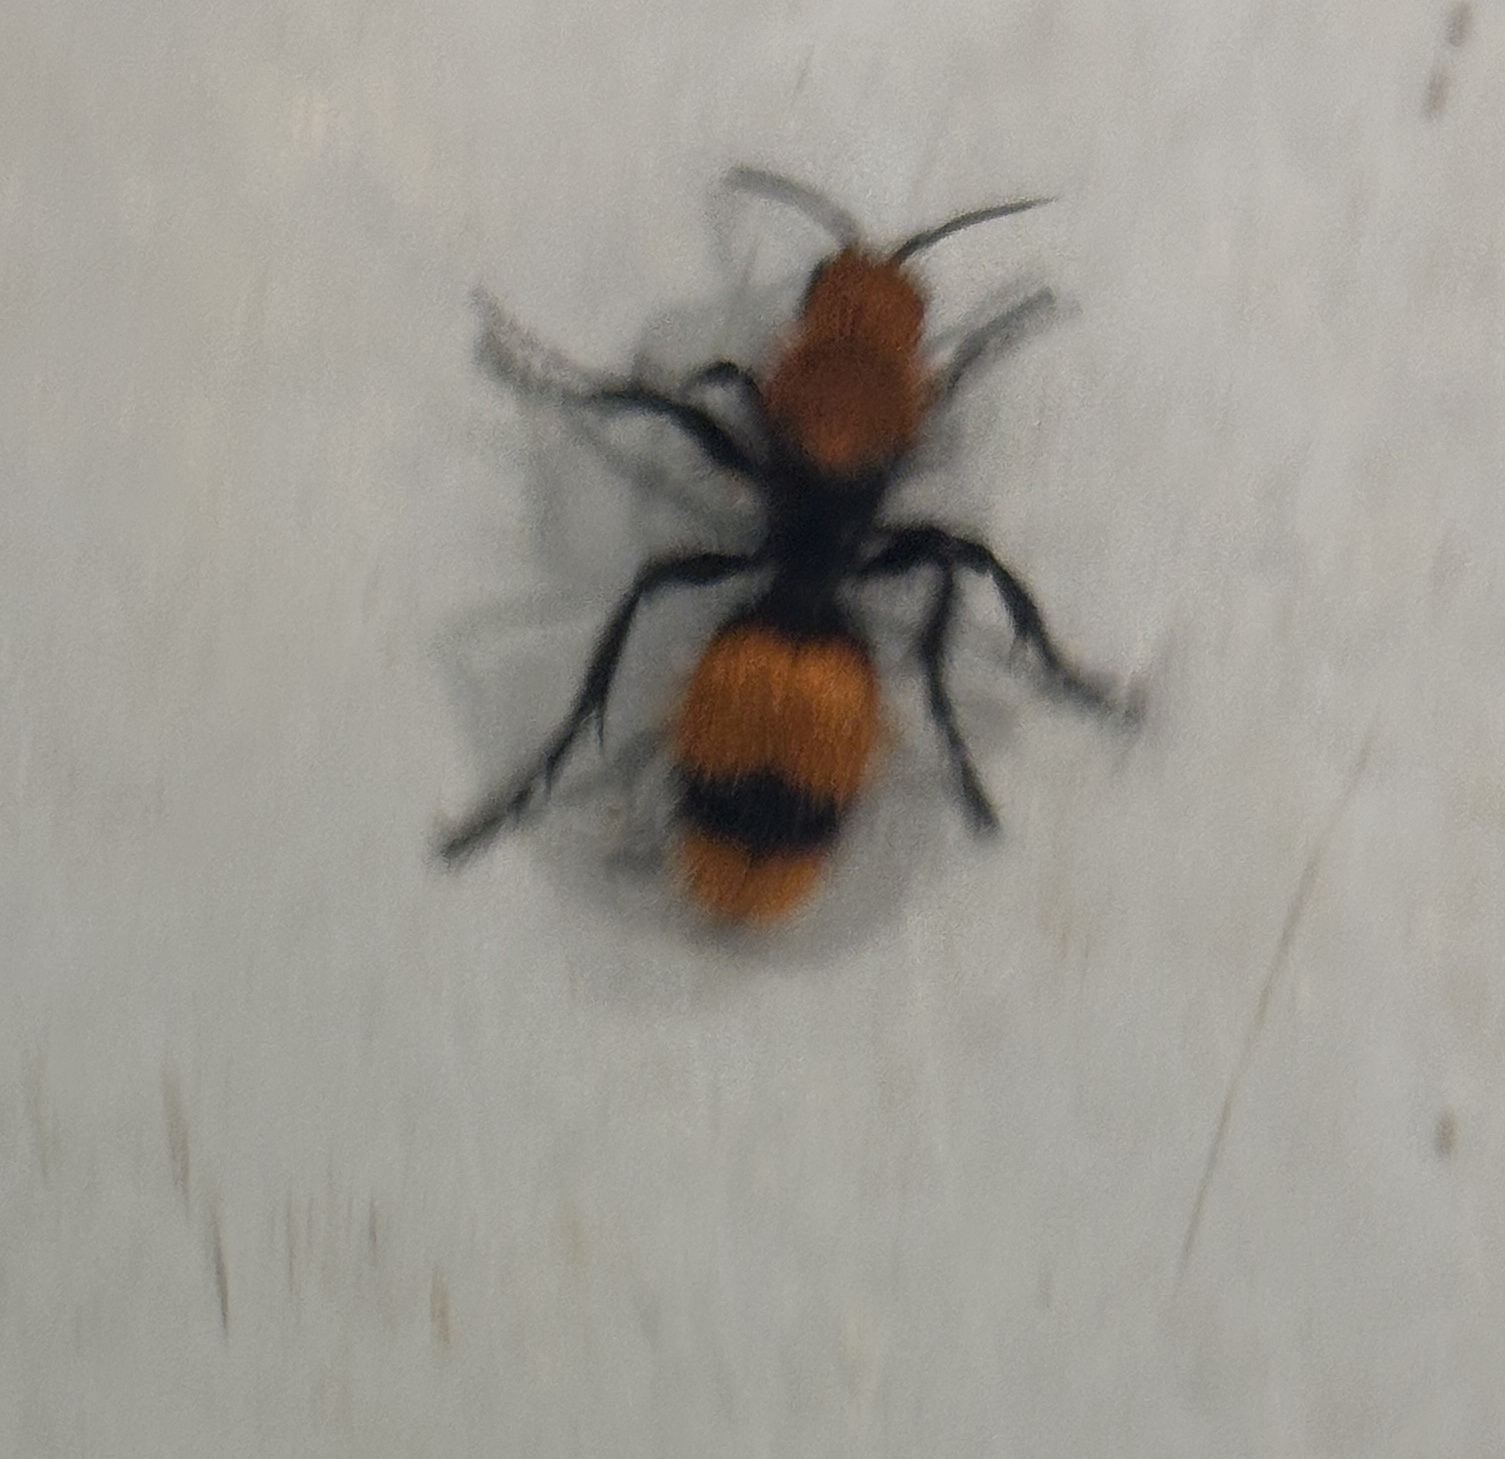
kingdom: Animalia
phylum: Arthropoda
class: Insecta
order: Hymenoptera
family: Mutillidae
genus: Dasymutilla
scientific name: Dasymutilla occidentalis
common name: Common eastern velvet ant
